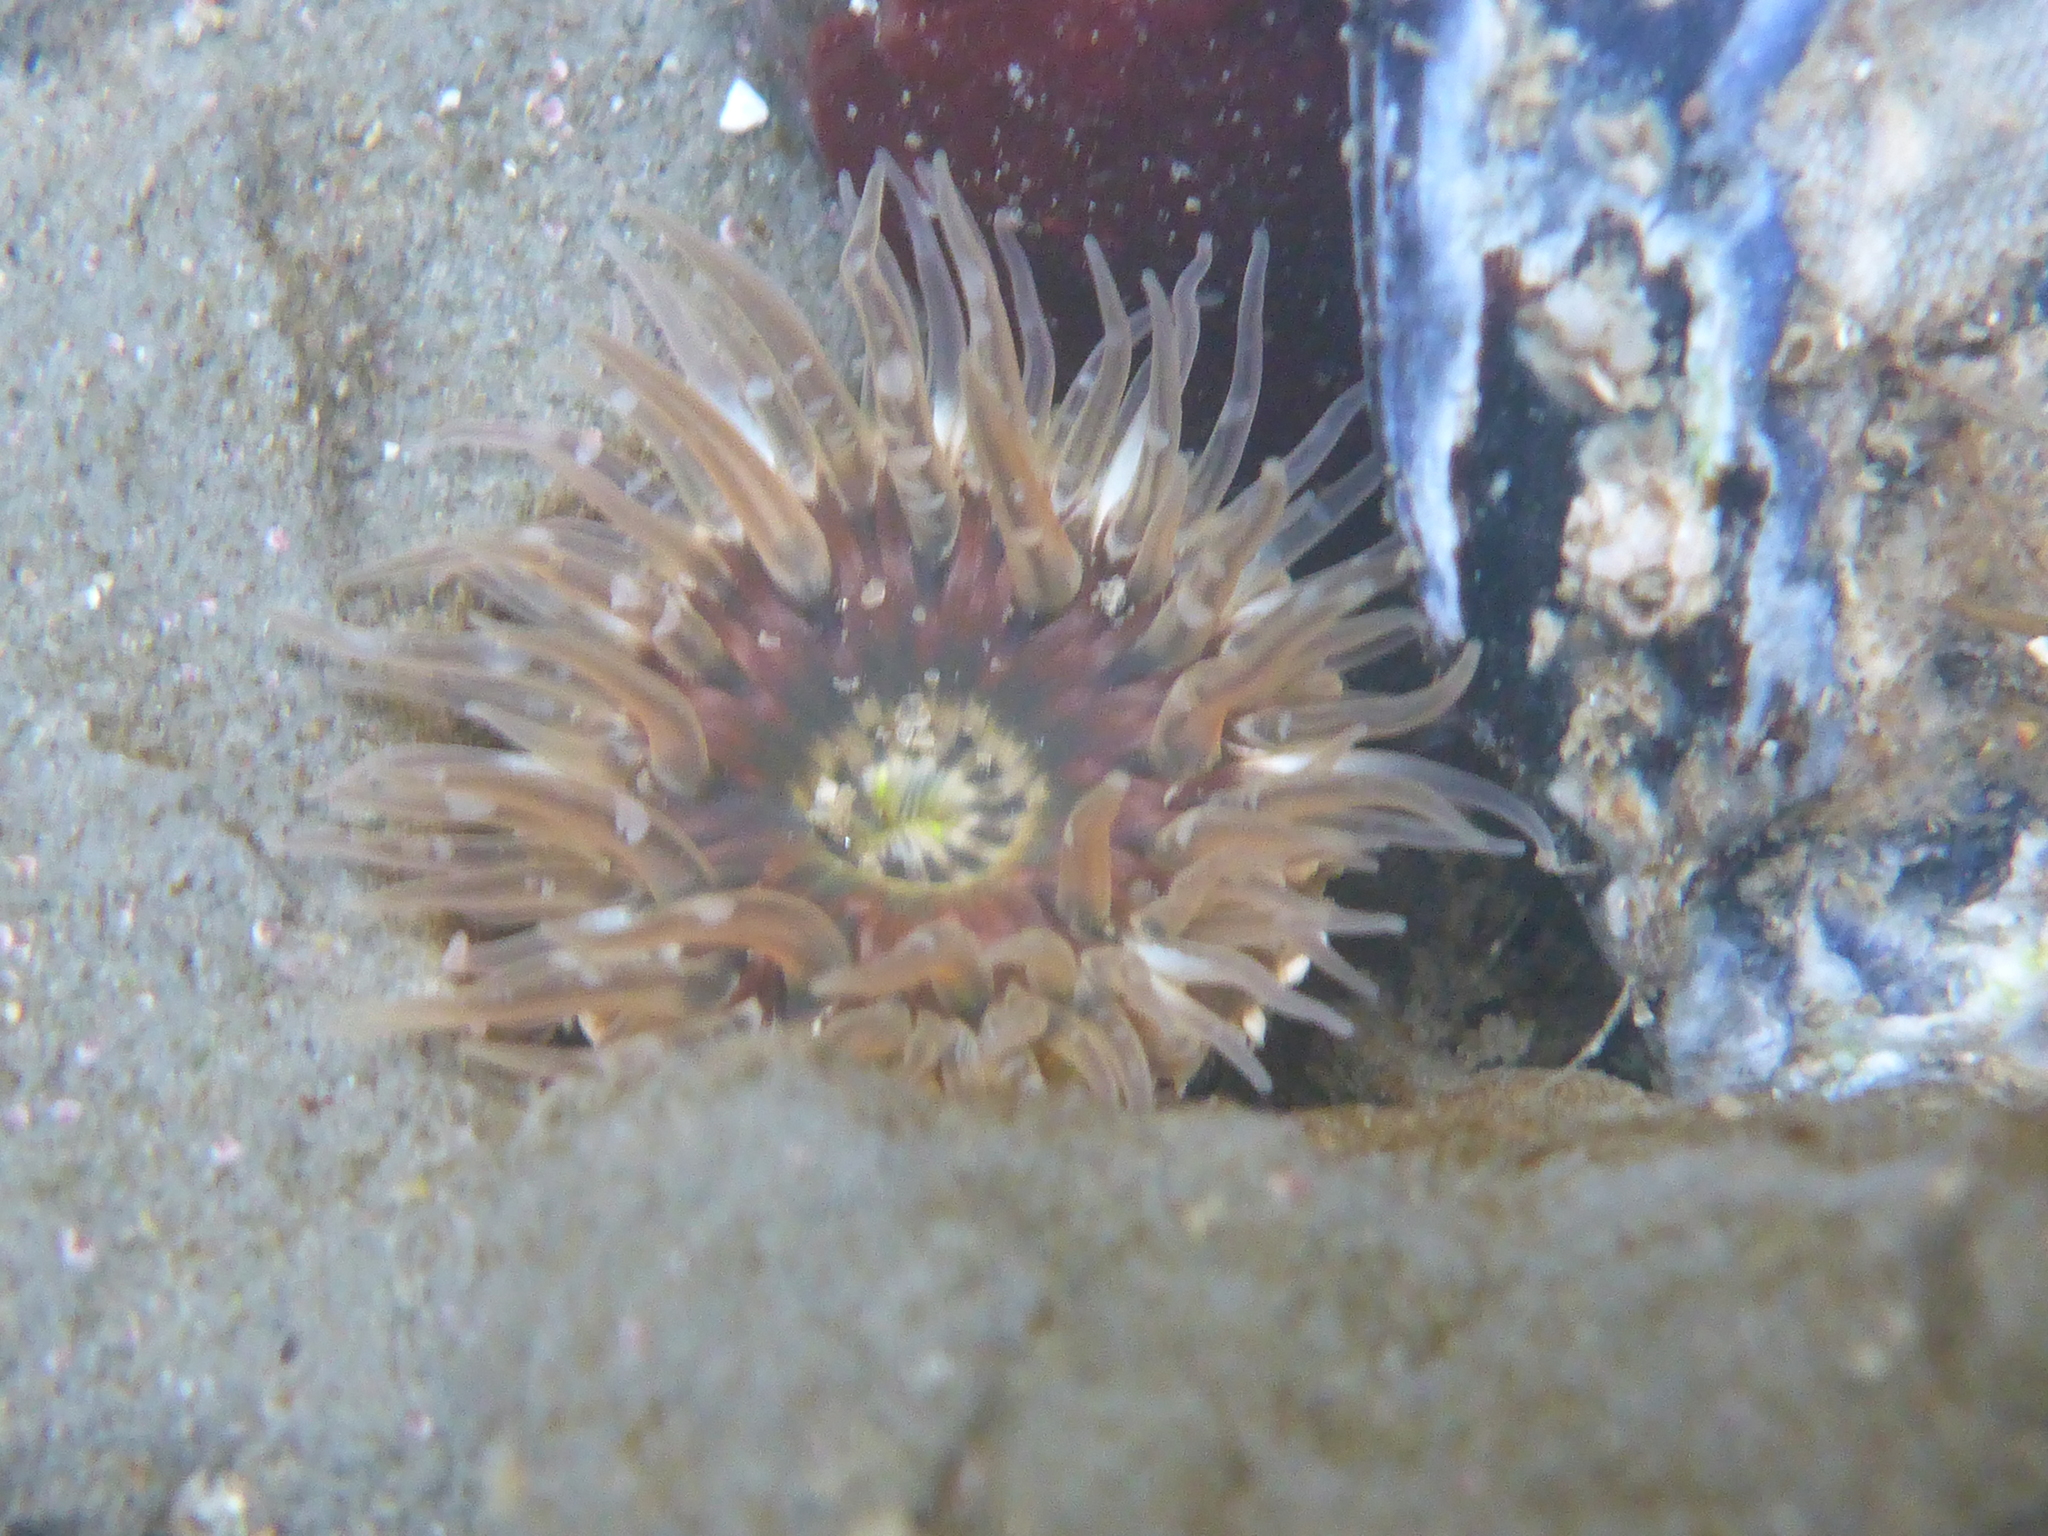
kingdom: Animalia
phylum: Cnidaria
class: Anthozoa
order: Actiniaria
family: Actiniidae
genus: Anthopleura
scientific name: Anthopleura artemisia
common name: Buried sea anemone
